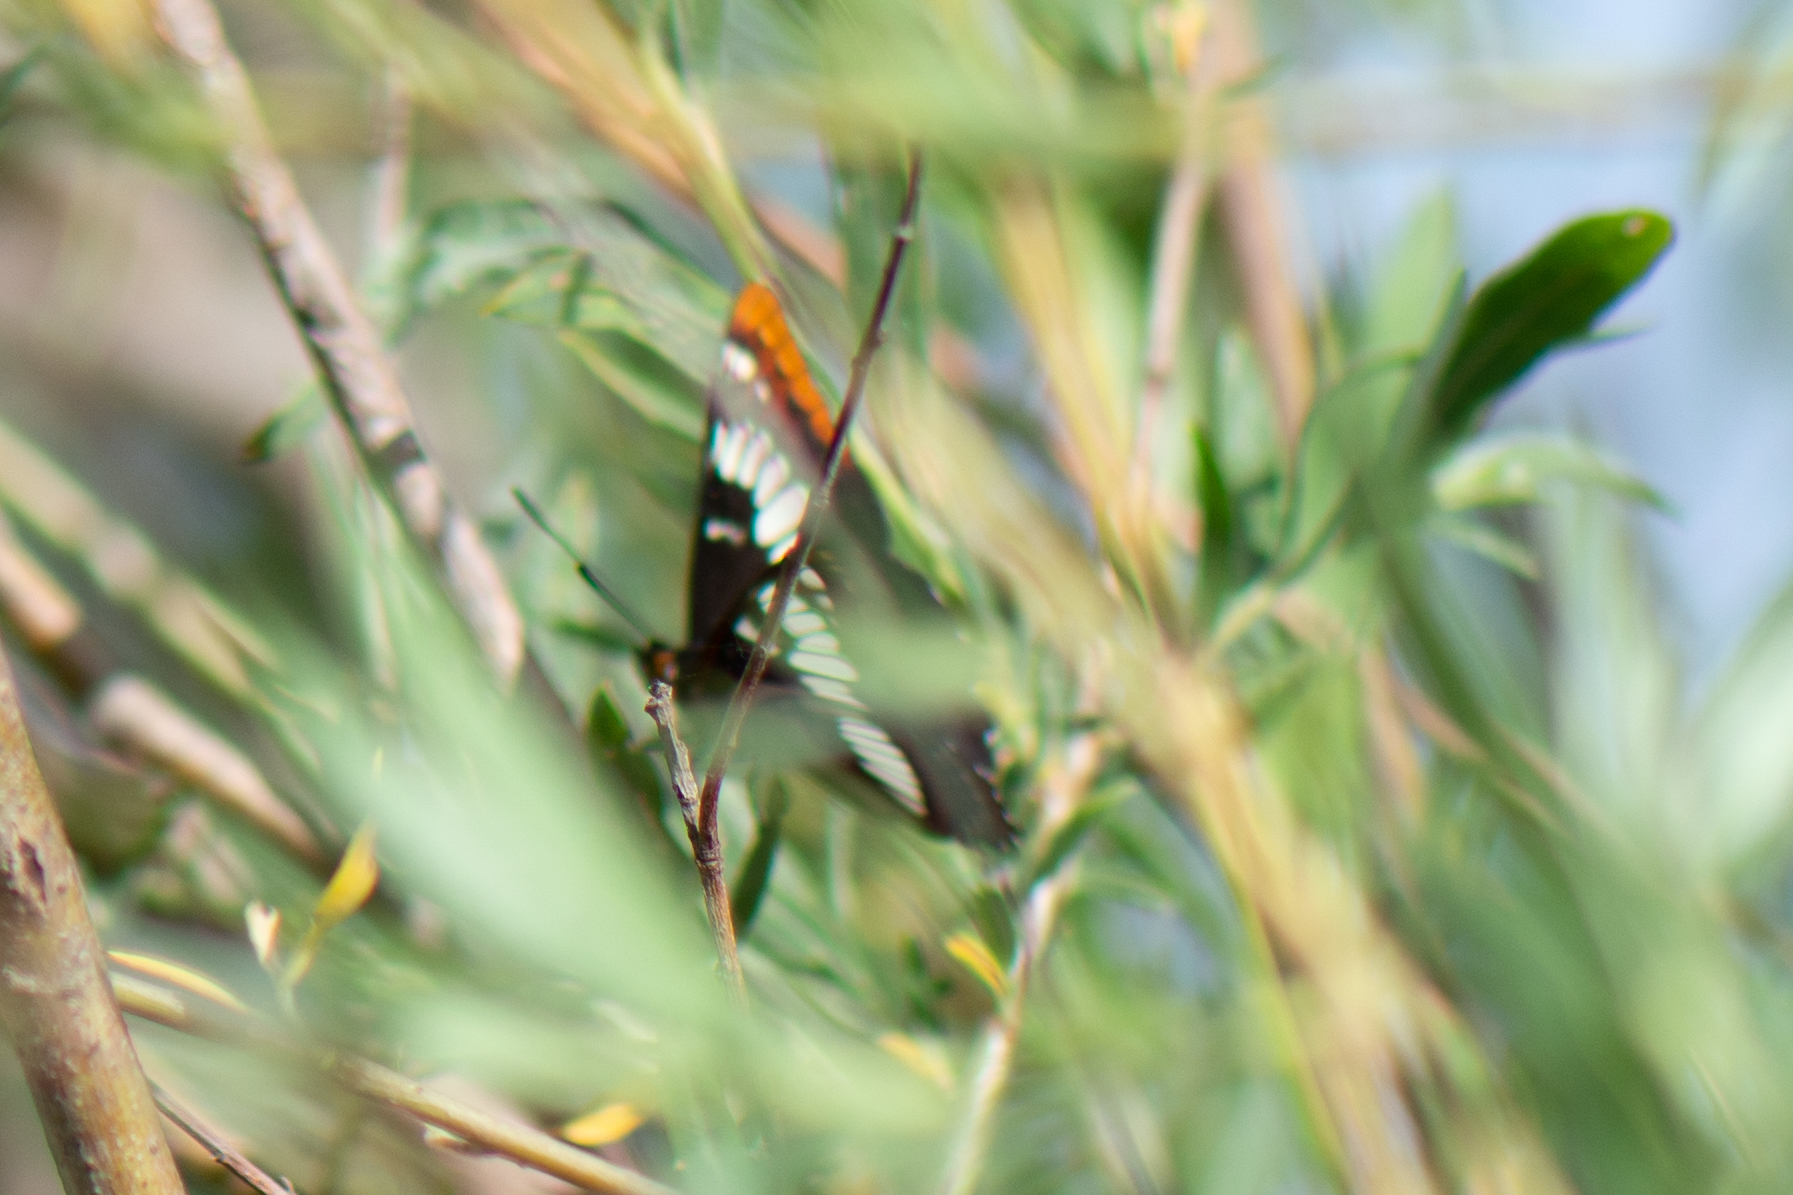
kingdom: Animalia
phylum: Arthropoda
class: Insecta
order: Lepidoptera
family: Nymphalidae
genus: Limenitis
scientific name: Limenitis lorquini
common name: Lorquin's admiral
